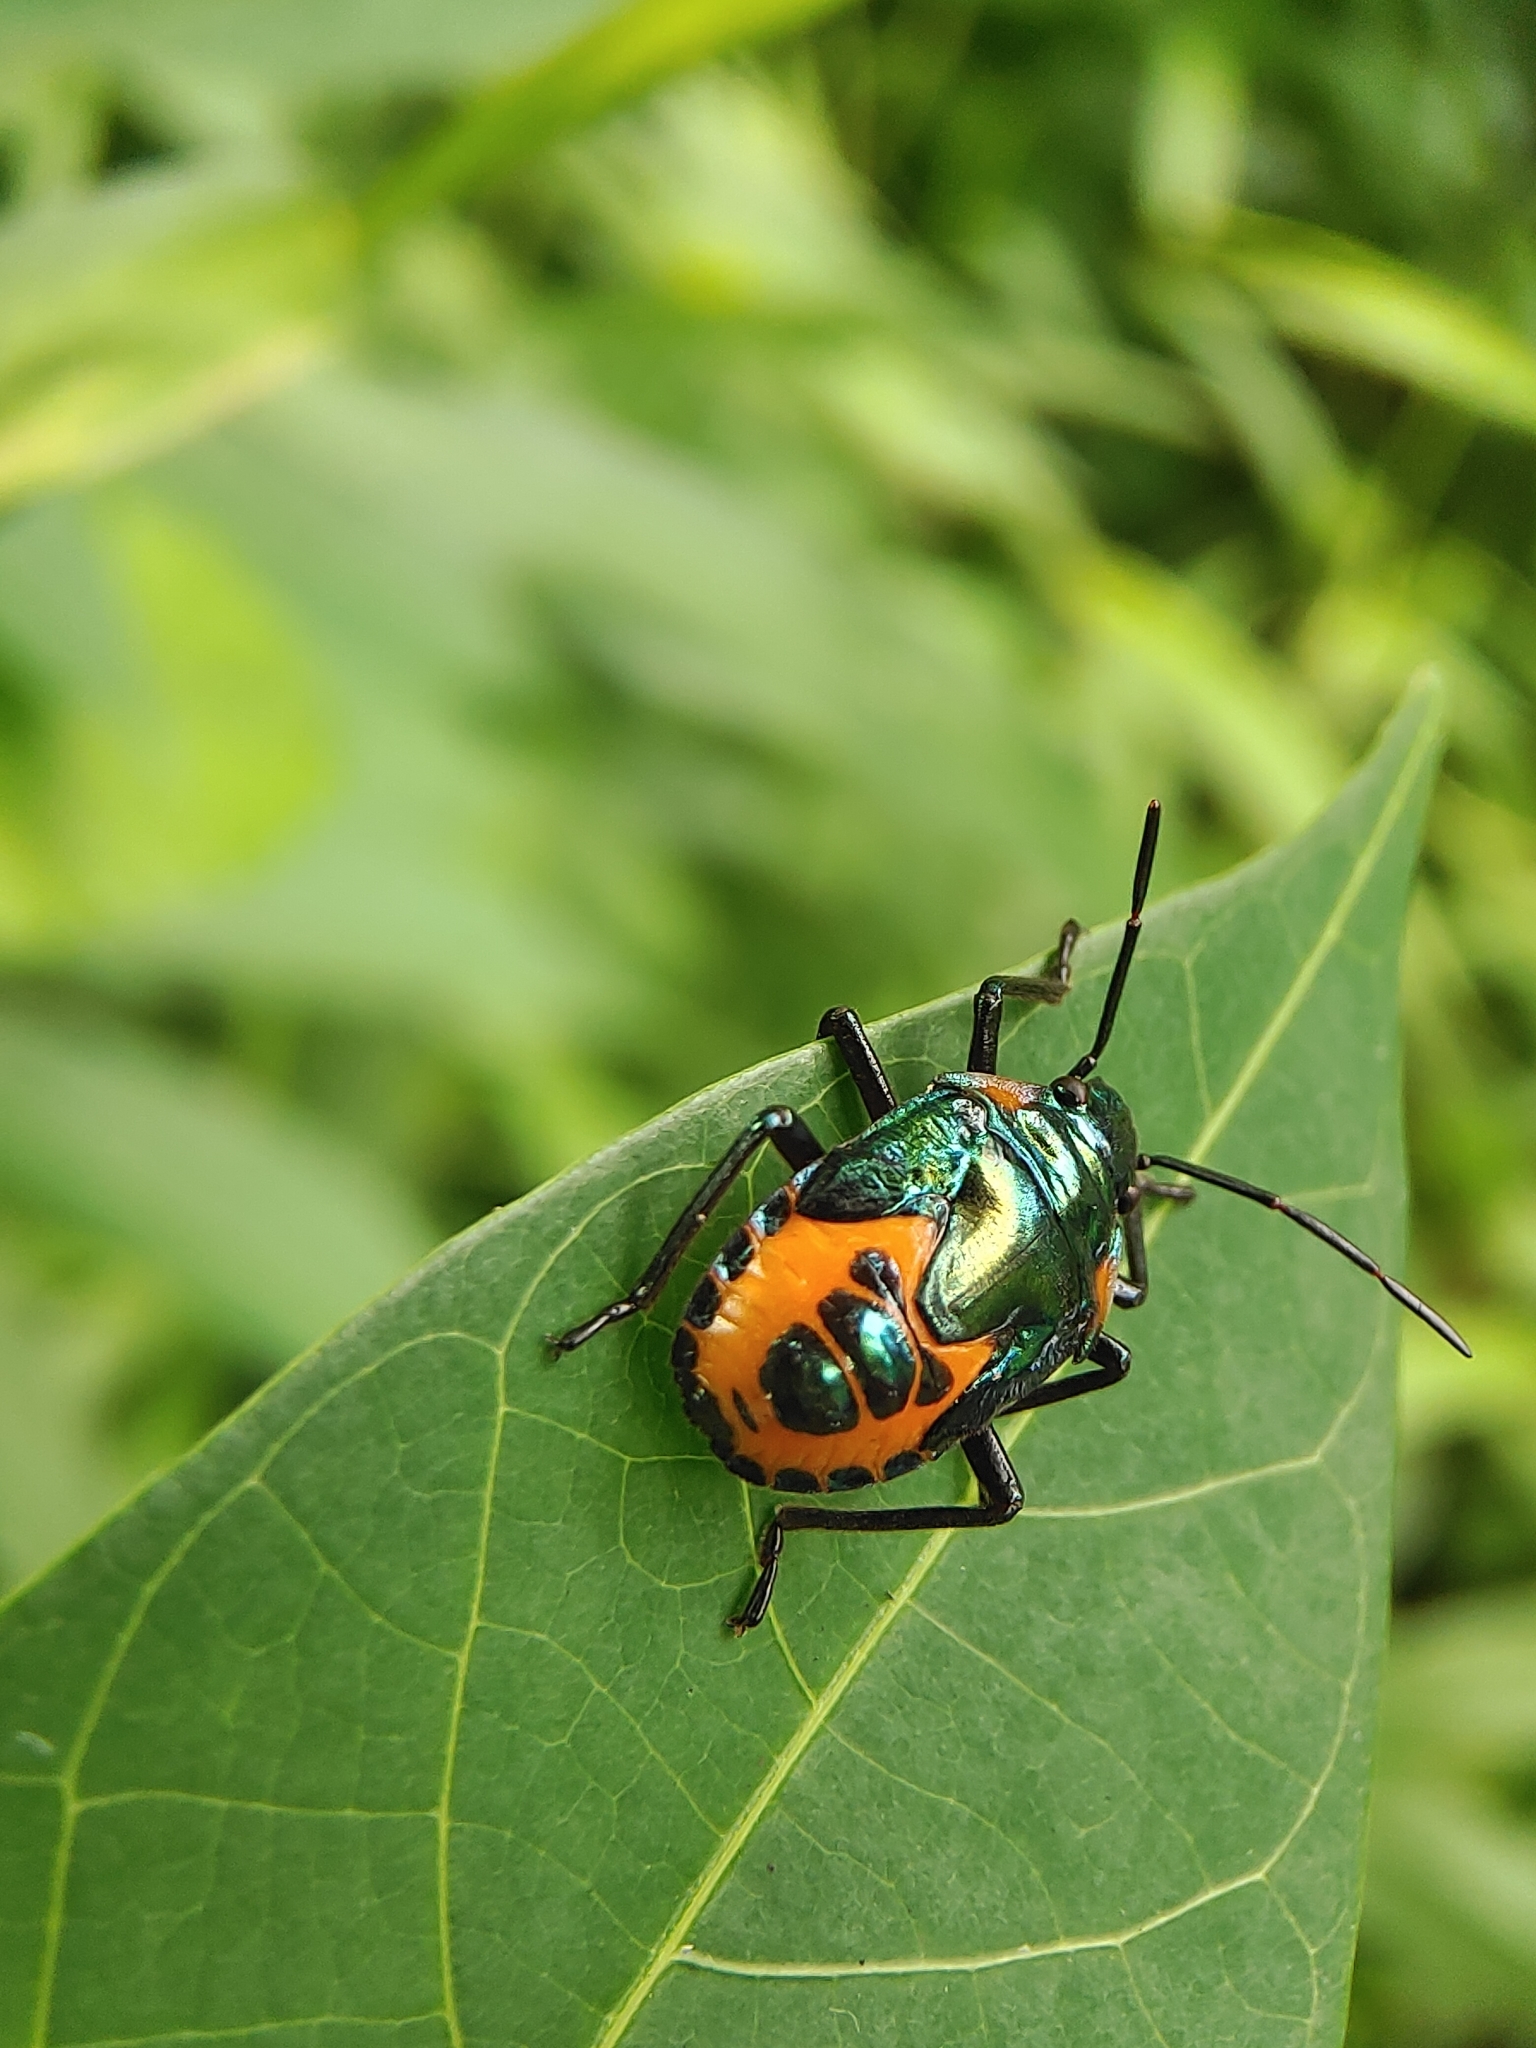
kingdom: Animalia
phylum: Arthropoda
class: Insecta
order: Hemiptera
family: Scutelleridae
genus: Cantao
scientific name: Cantao ocellatus
